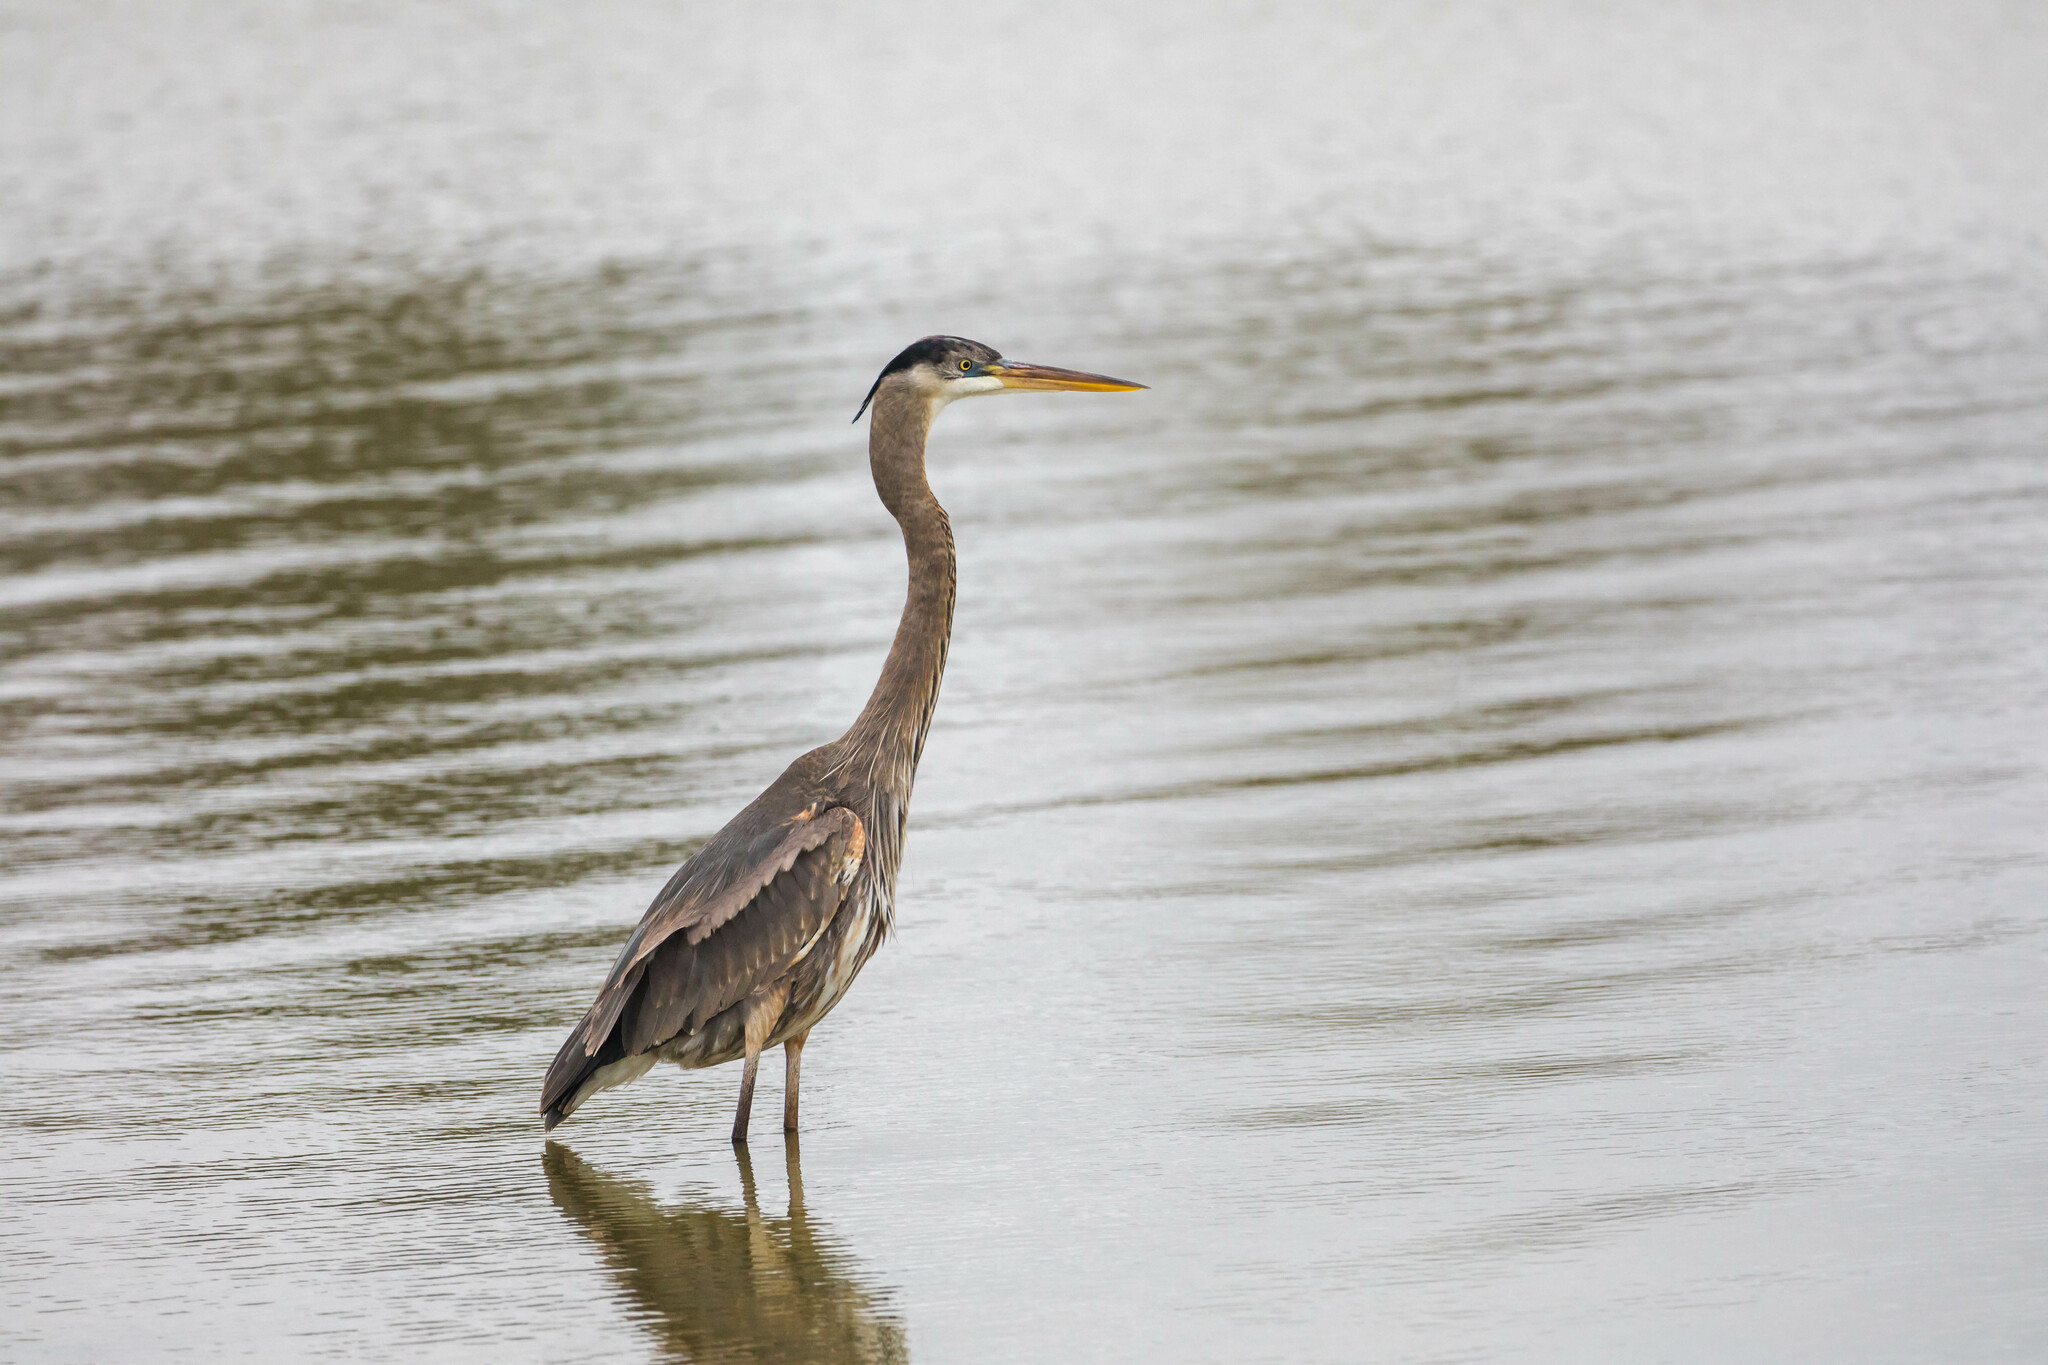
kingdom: Animalia
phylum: Chordata
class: Aves
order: Pelecaniformes
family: Ardeidae
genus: Ardea
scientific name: Ardea herodias
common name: Great blue heron
